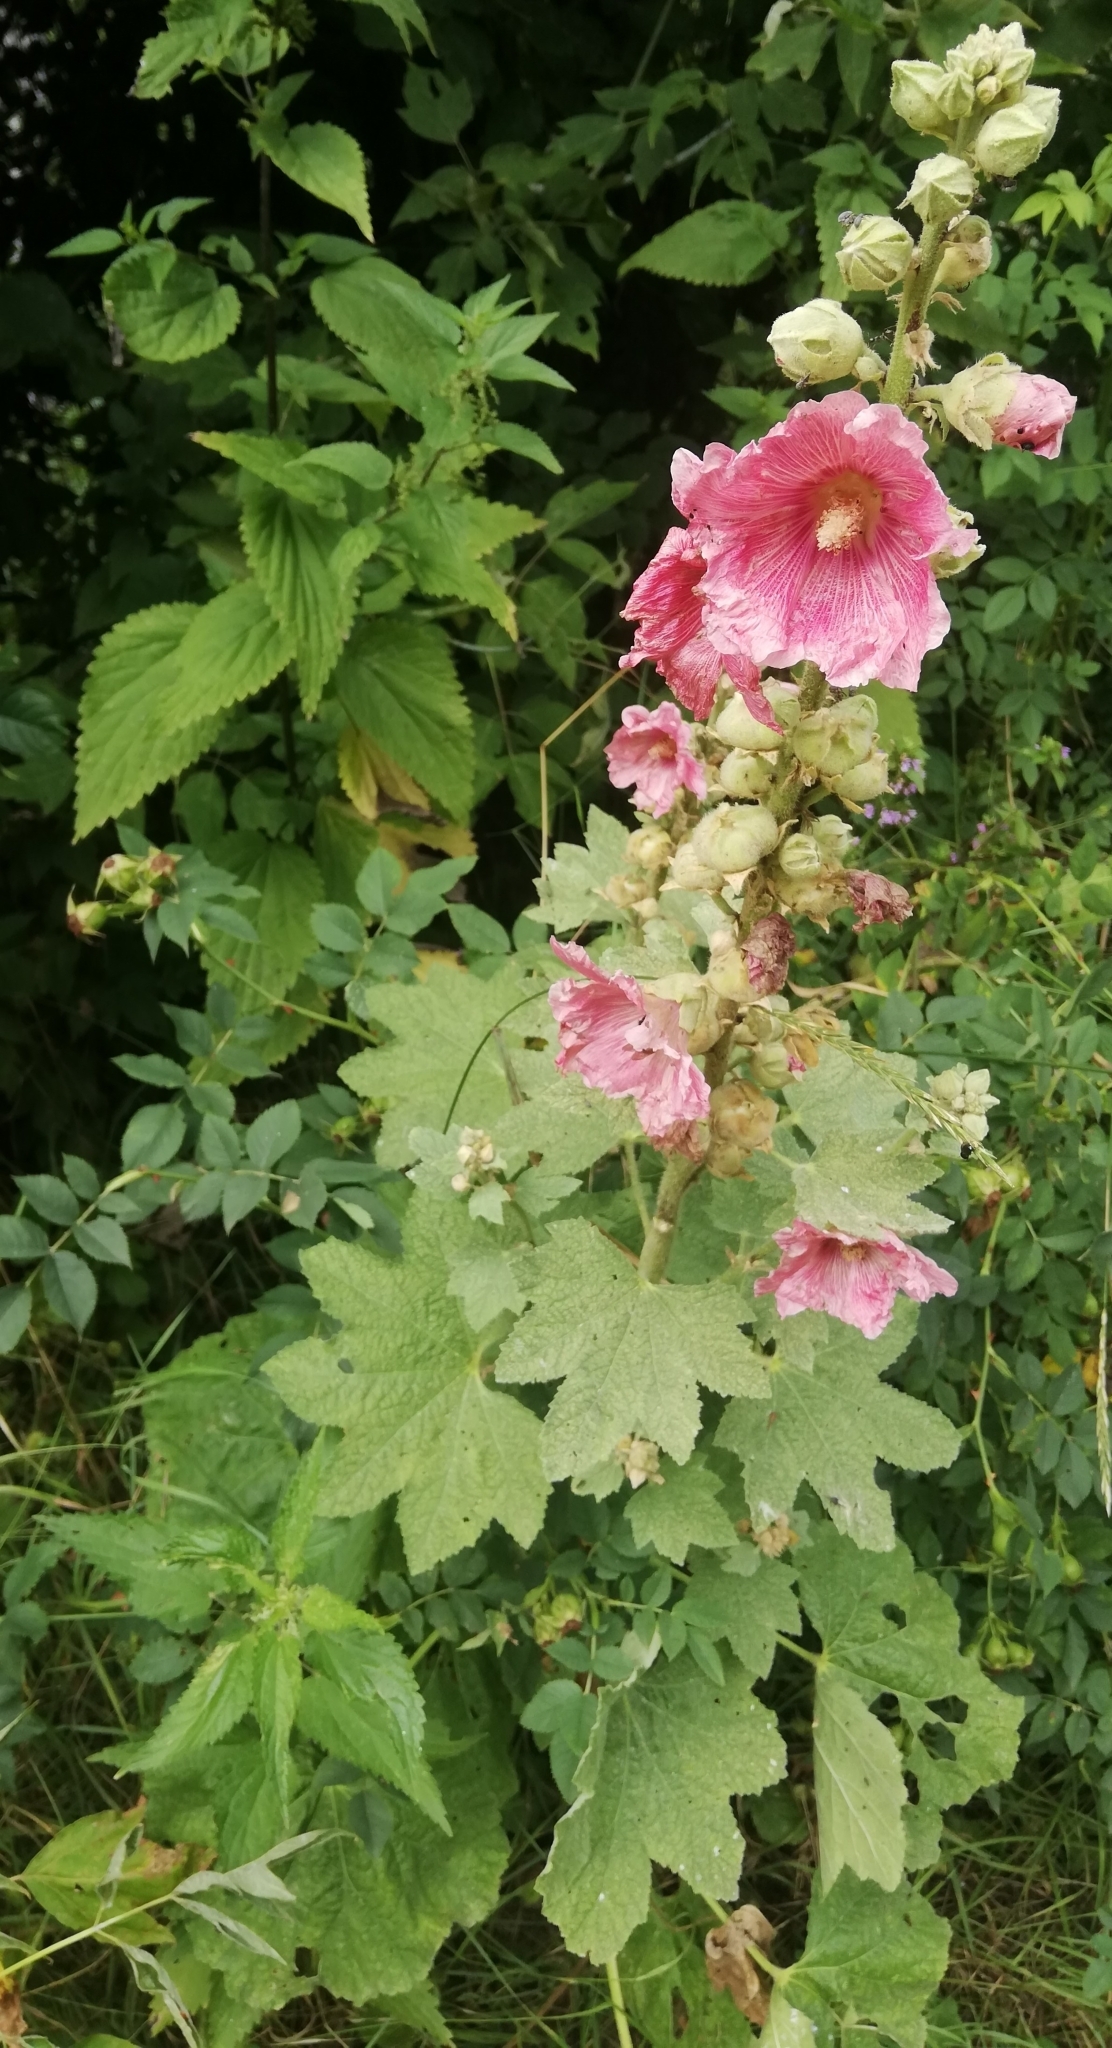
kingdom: Plantae
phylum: Tracheophyta
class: Magnoliopsida
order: Malvales
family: Malvaceae
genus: Alcea
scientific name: Alcea rosea
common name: Hollyhock
